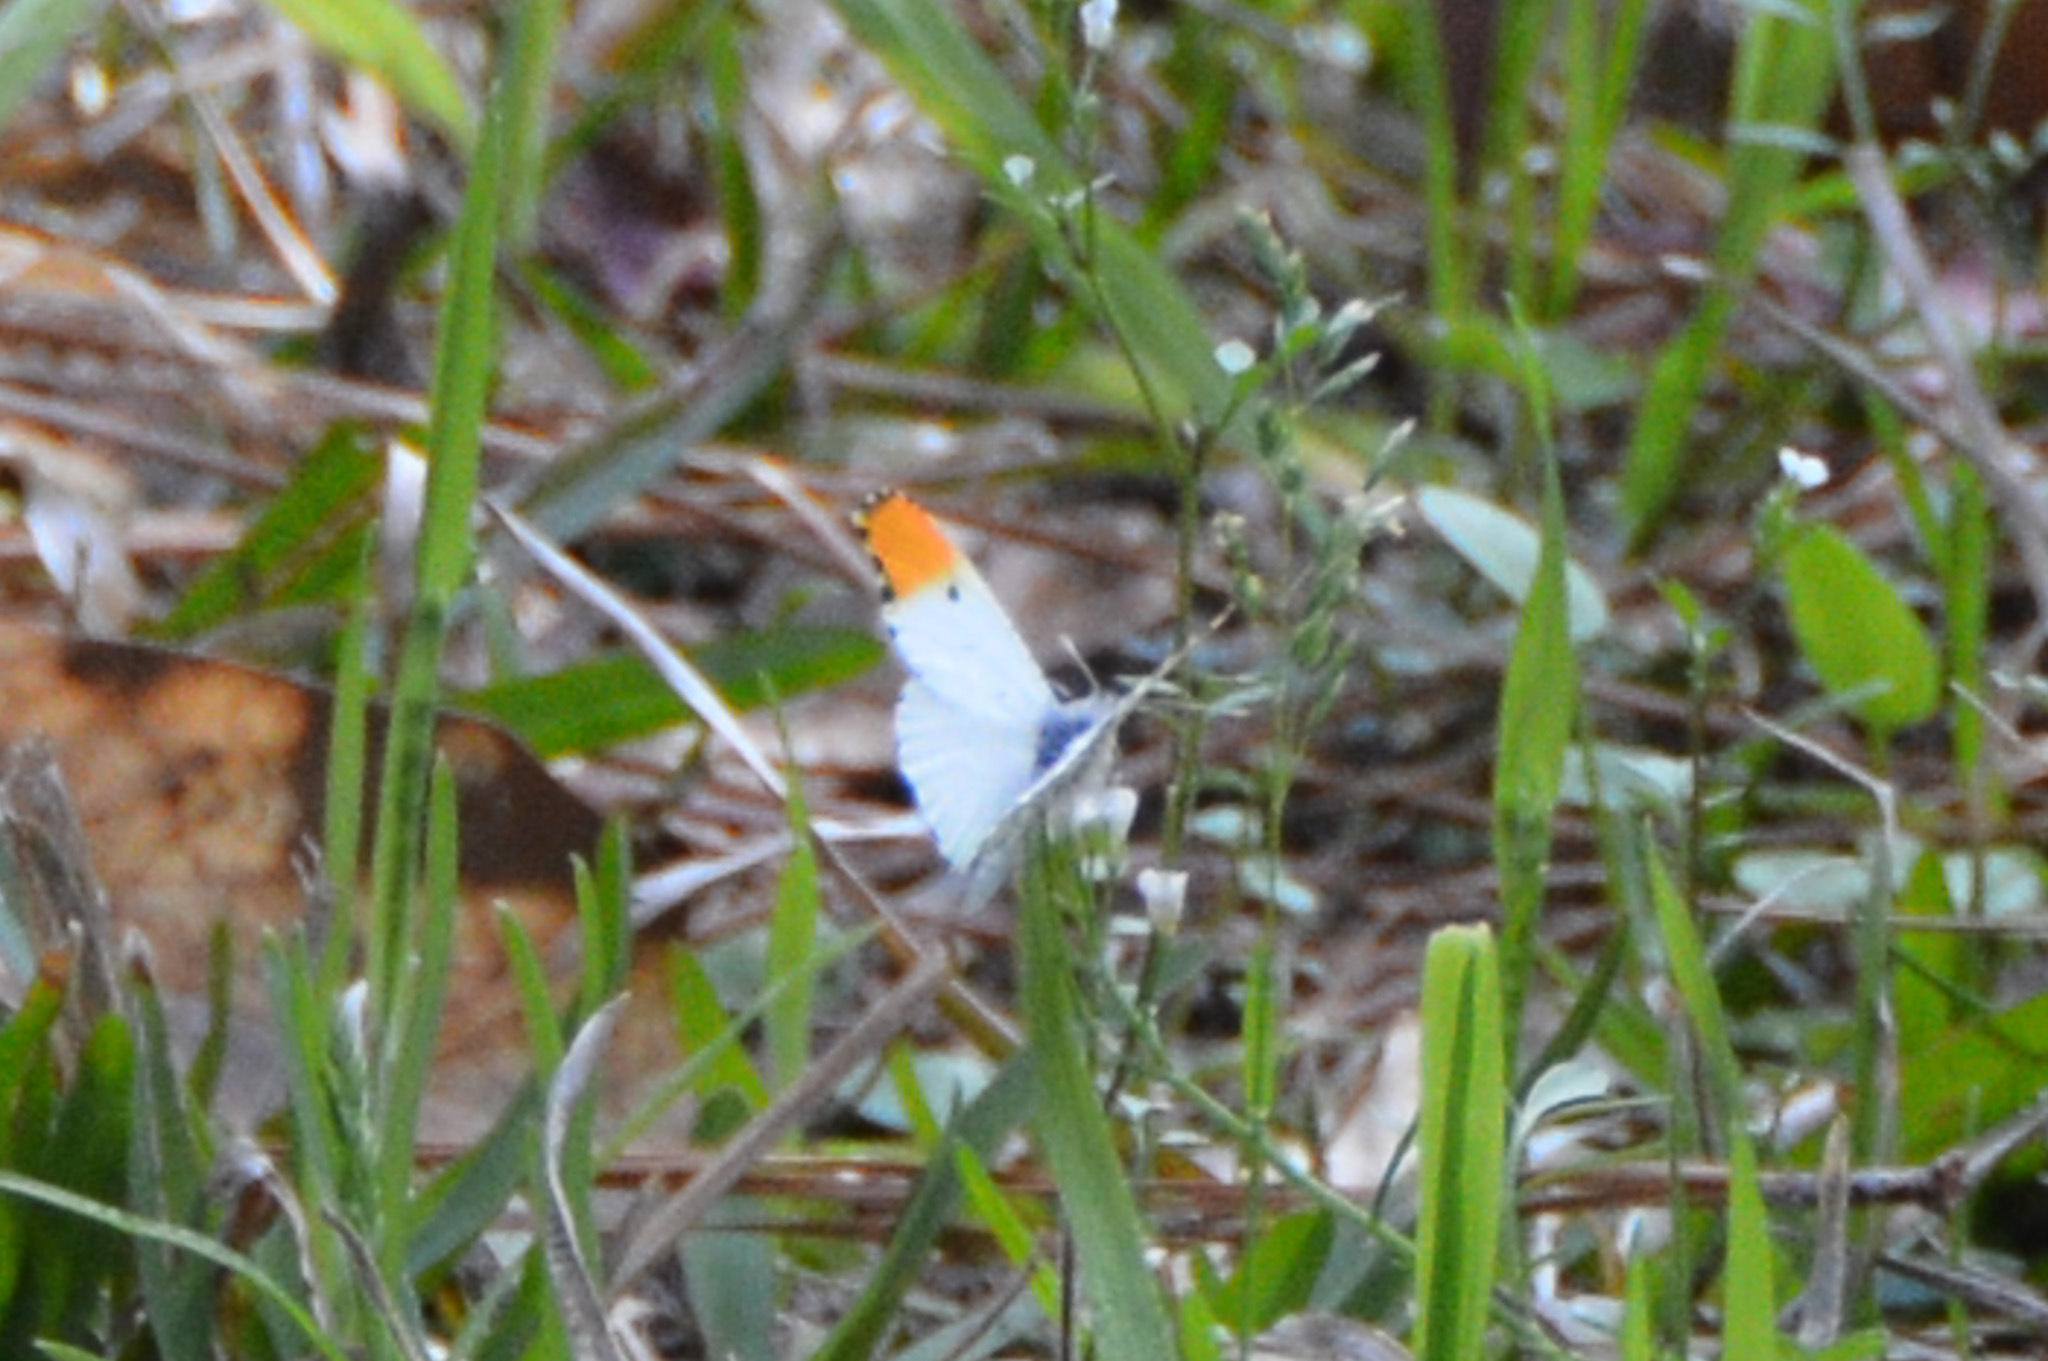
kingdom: Animalia
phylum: Arthropoda
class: Insecta
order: Lepidoptera
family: Pieridae
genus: Anthocharis
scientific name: Anthocharis midea
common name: Falcate orangetip
